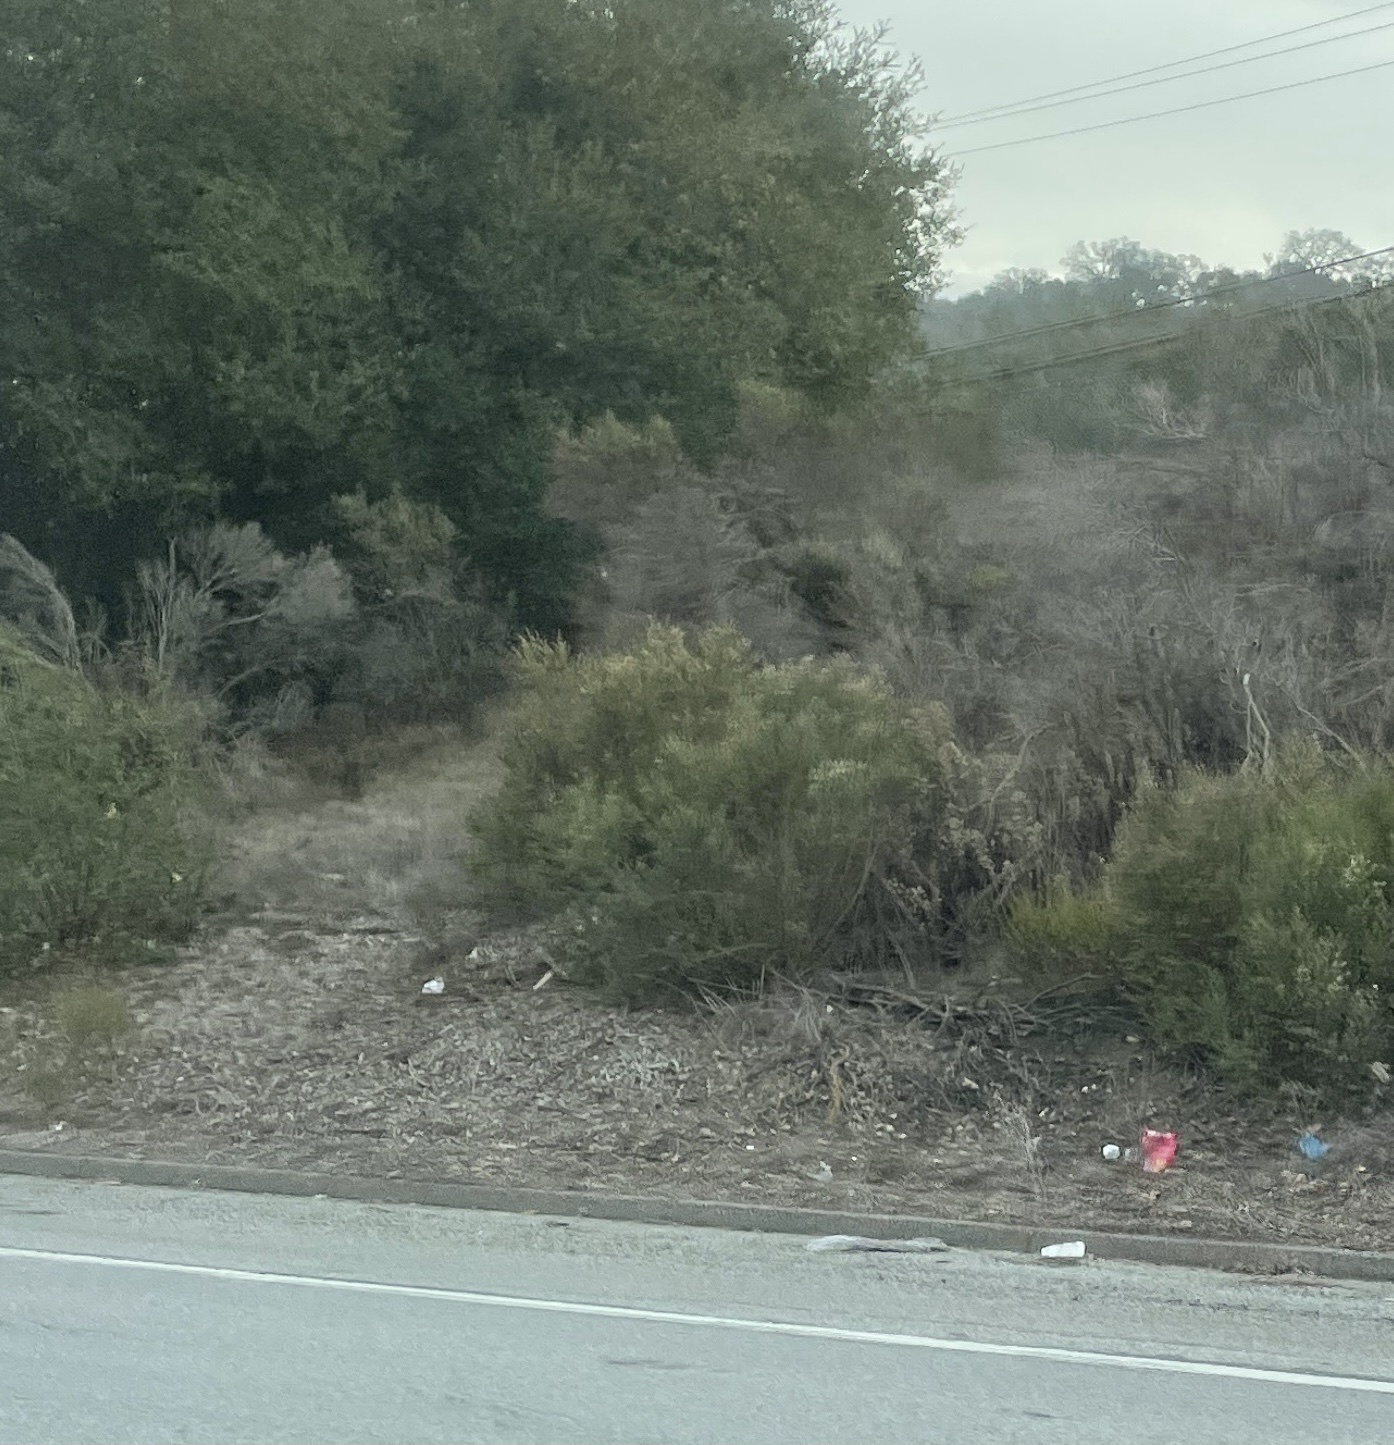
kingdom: Plantae
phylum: Tracheophyta
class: Magnoliopsida
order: Asterales
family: Asteraceae
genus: Baccharis
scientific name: Baccharis pilularis
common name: Coyotebrush
